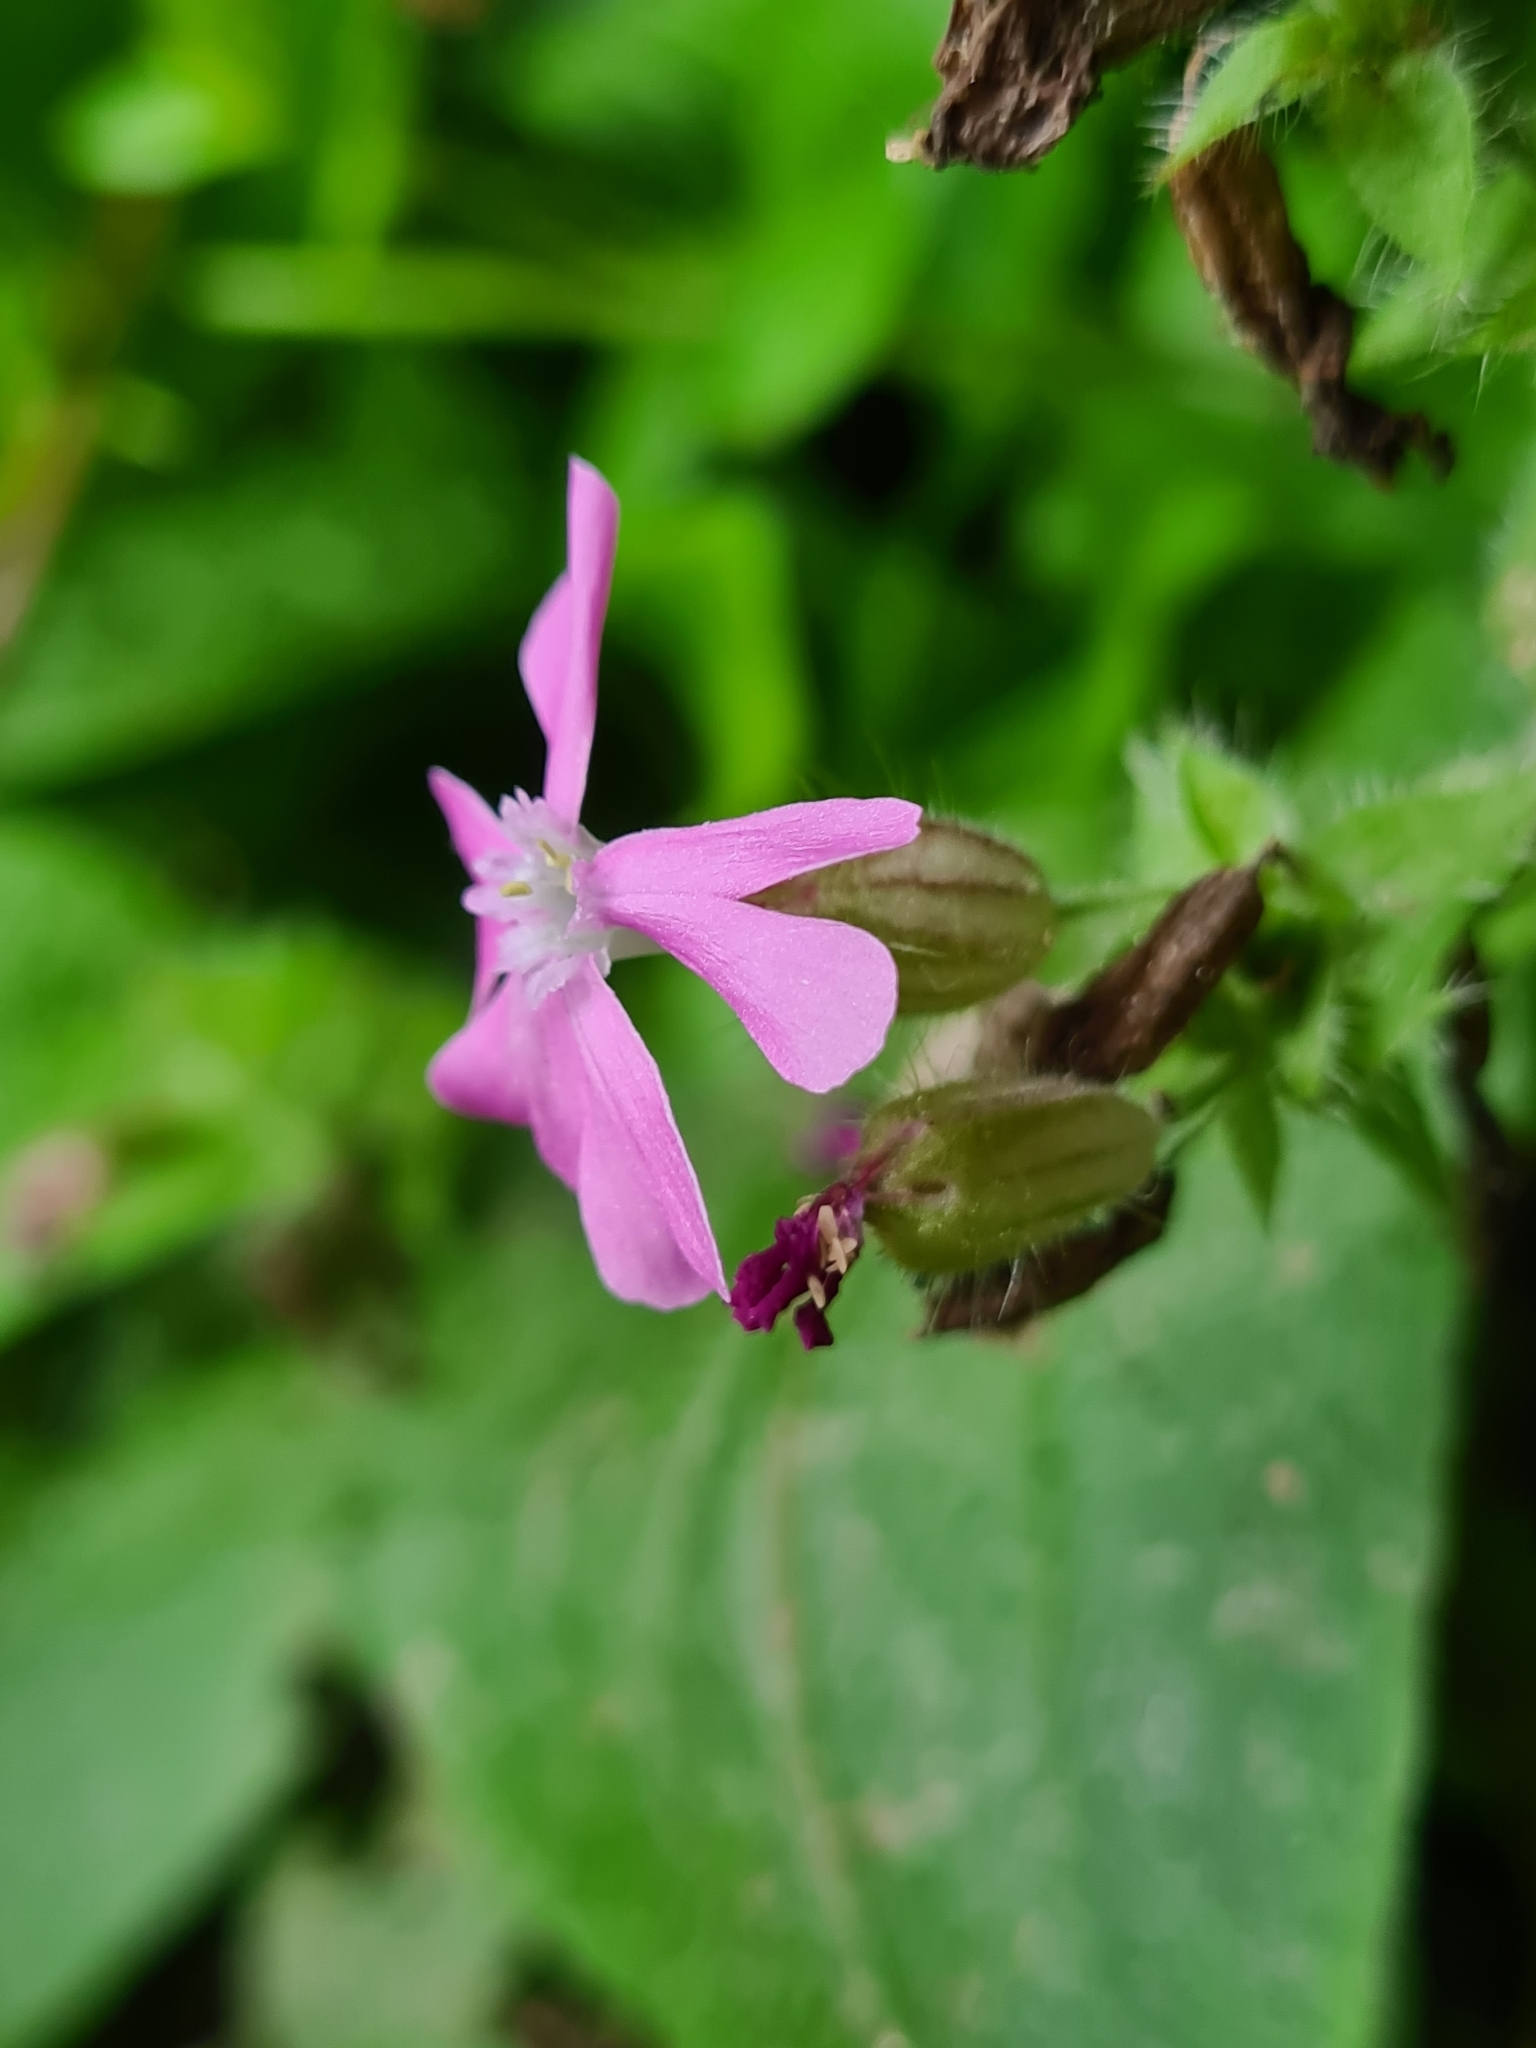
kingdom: Plantae
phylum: Tracheophyta
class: Magnoliopsida
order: Caryophyllales
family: Caryophyllaceae
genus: Silene
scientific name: Silene dioica
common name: Red campion
